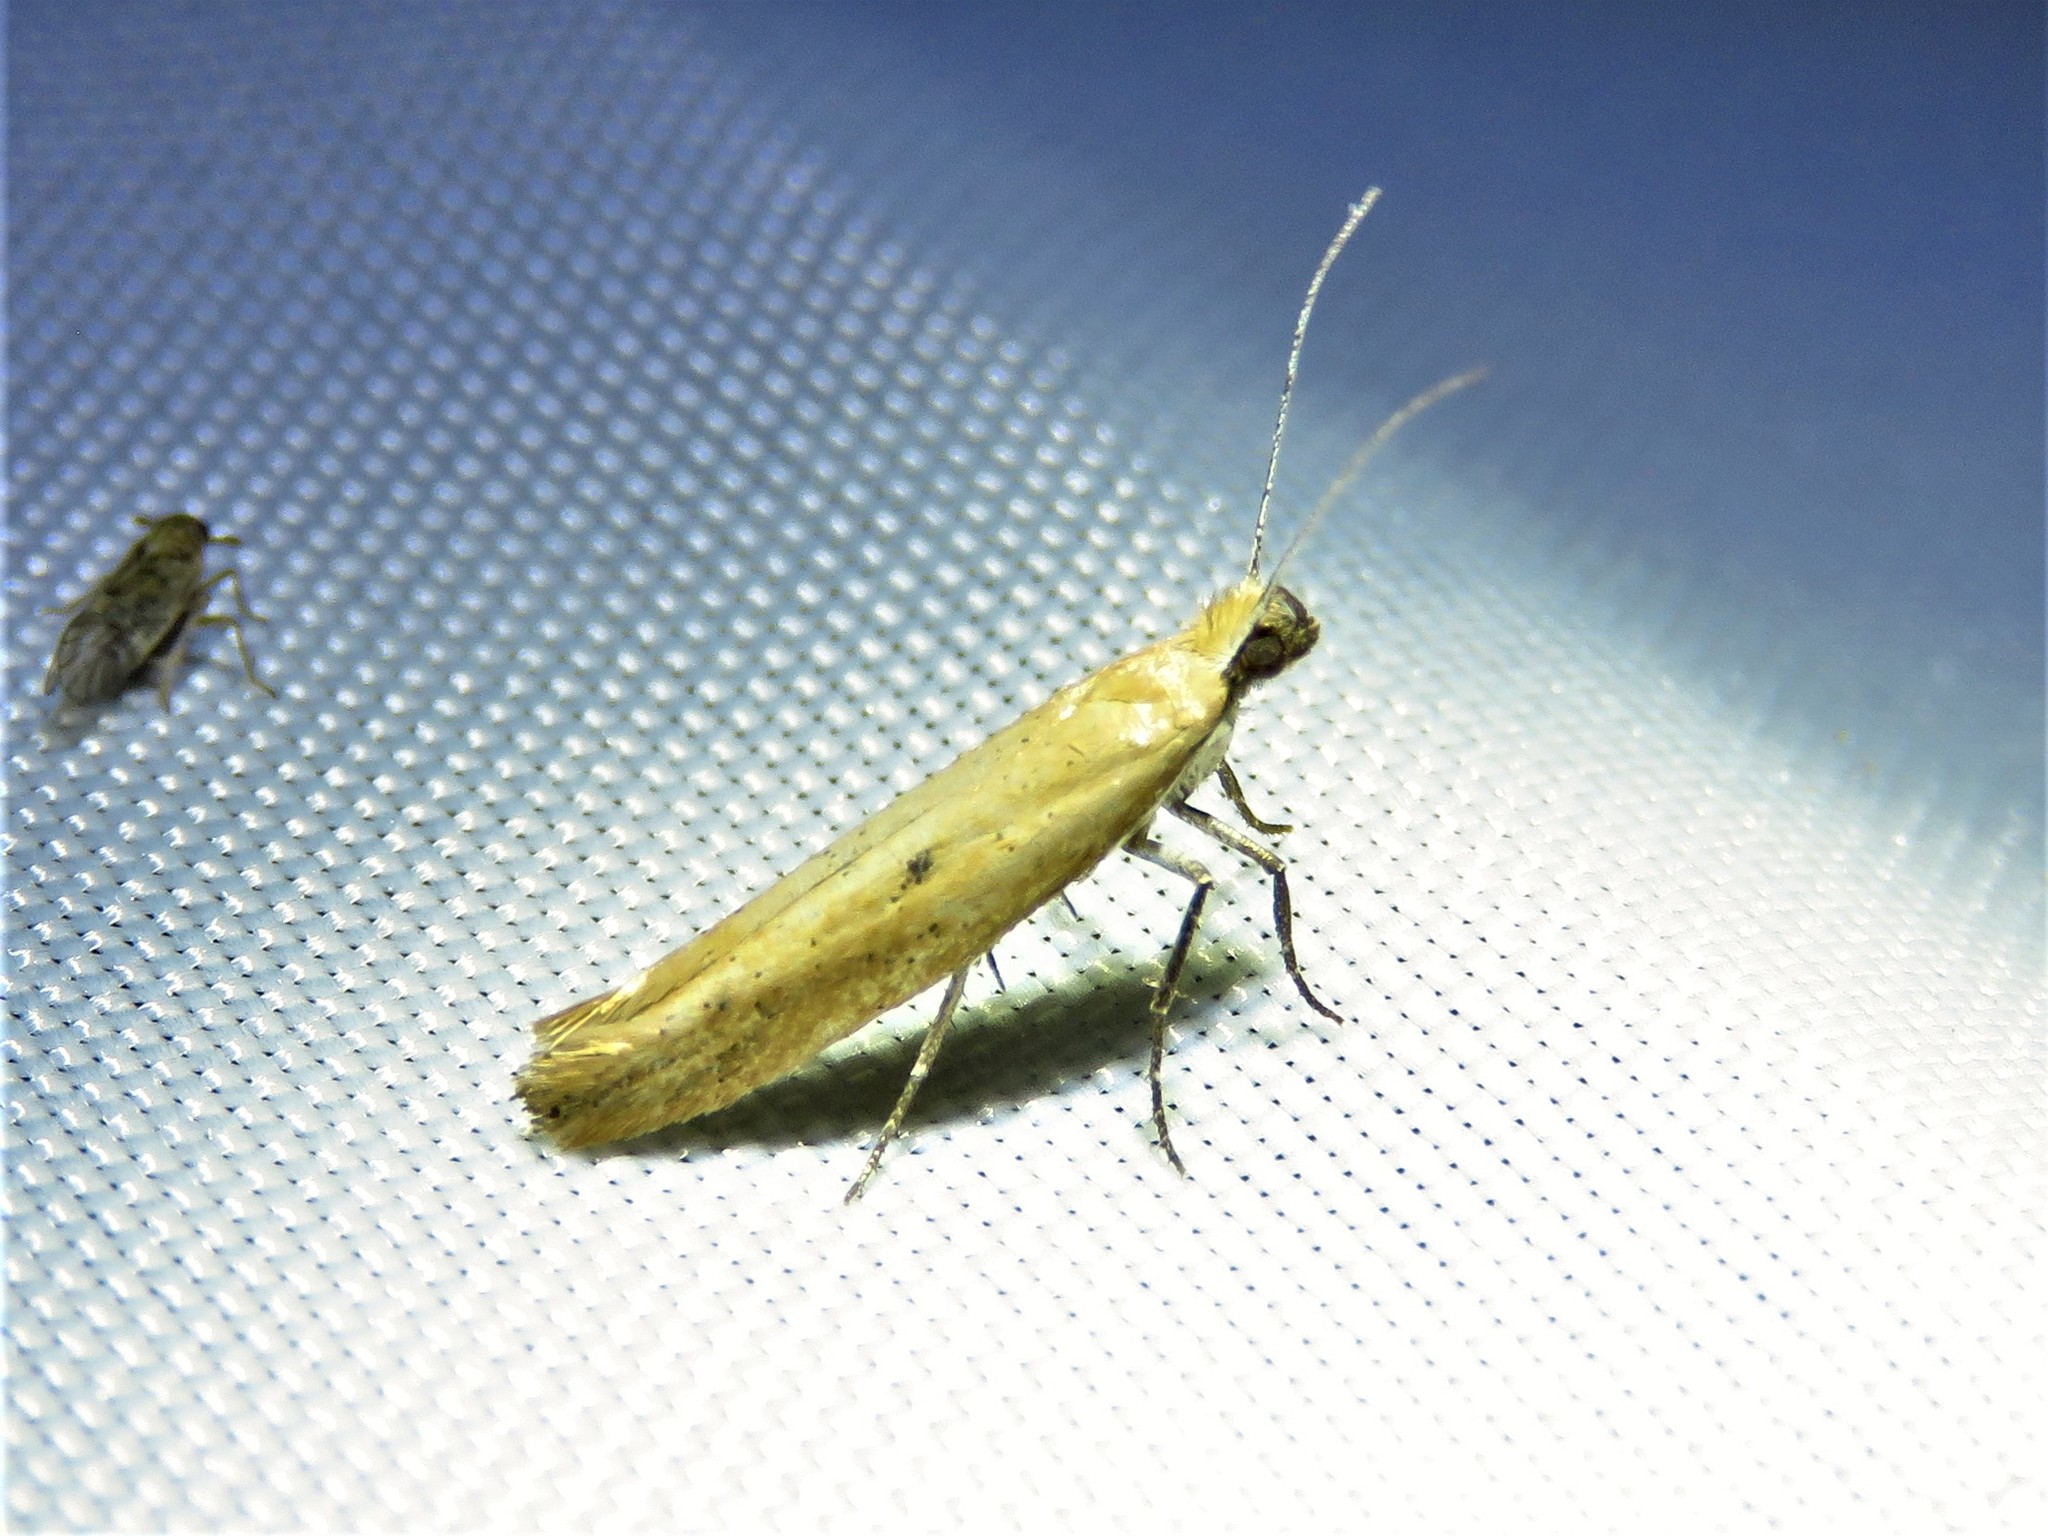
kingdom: Animalia
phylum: Arthropoda
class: Insecta
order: Lepidoptera
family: Ypsolophidae
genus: Ypsolopha
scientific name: Ypsolopha
